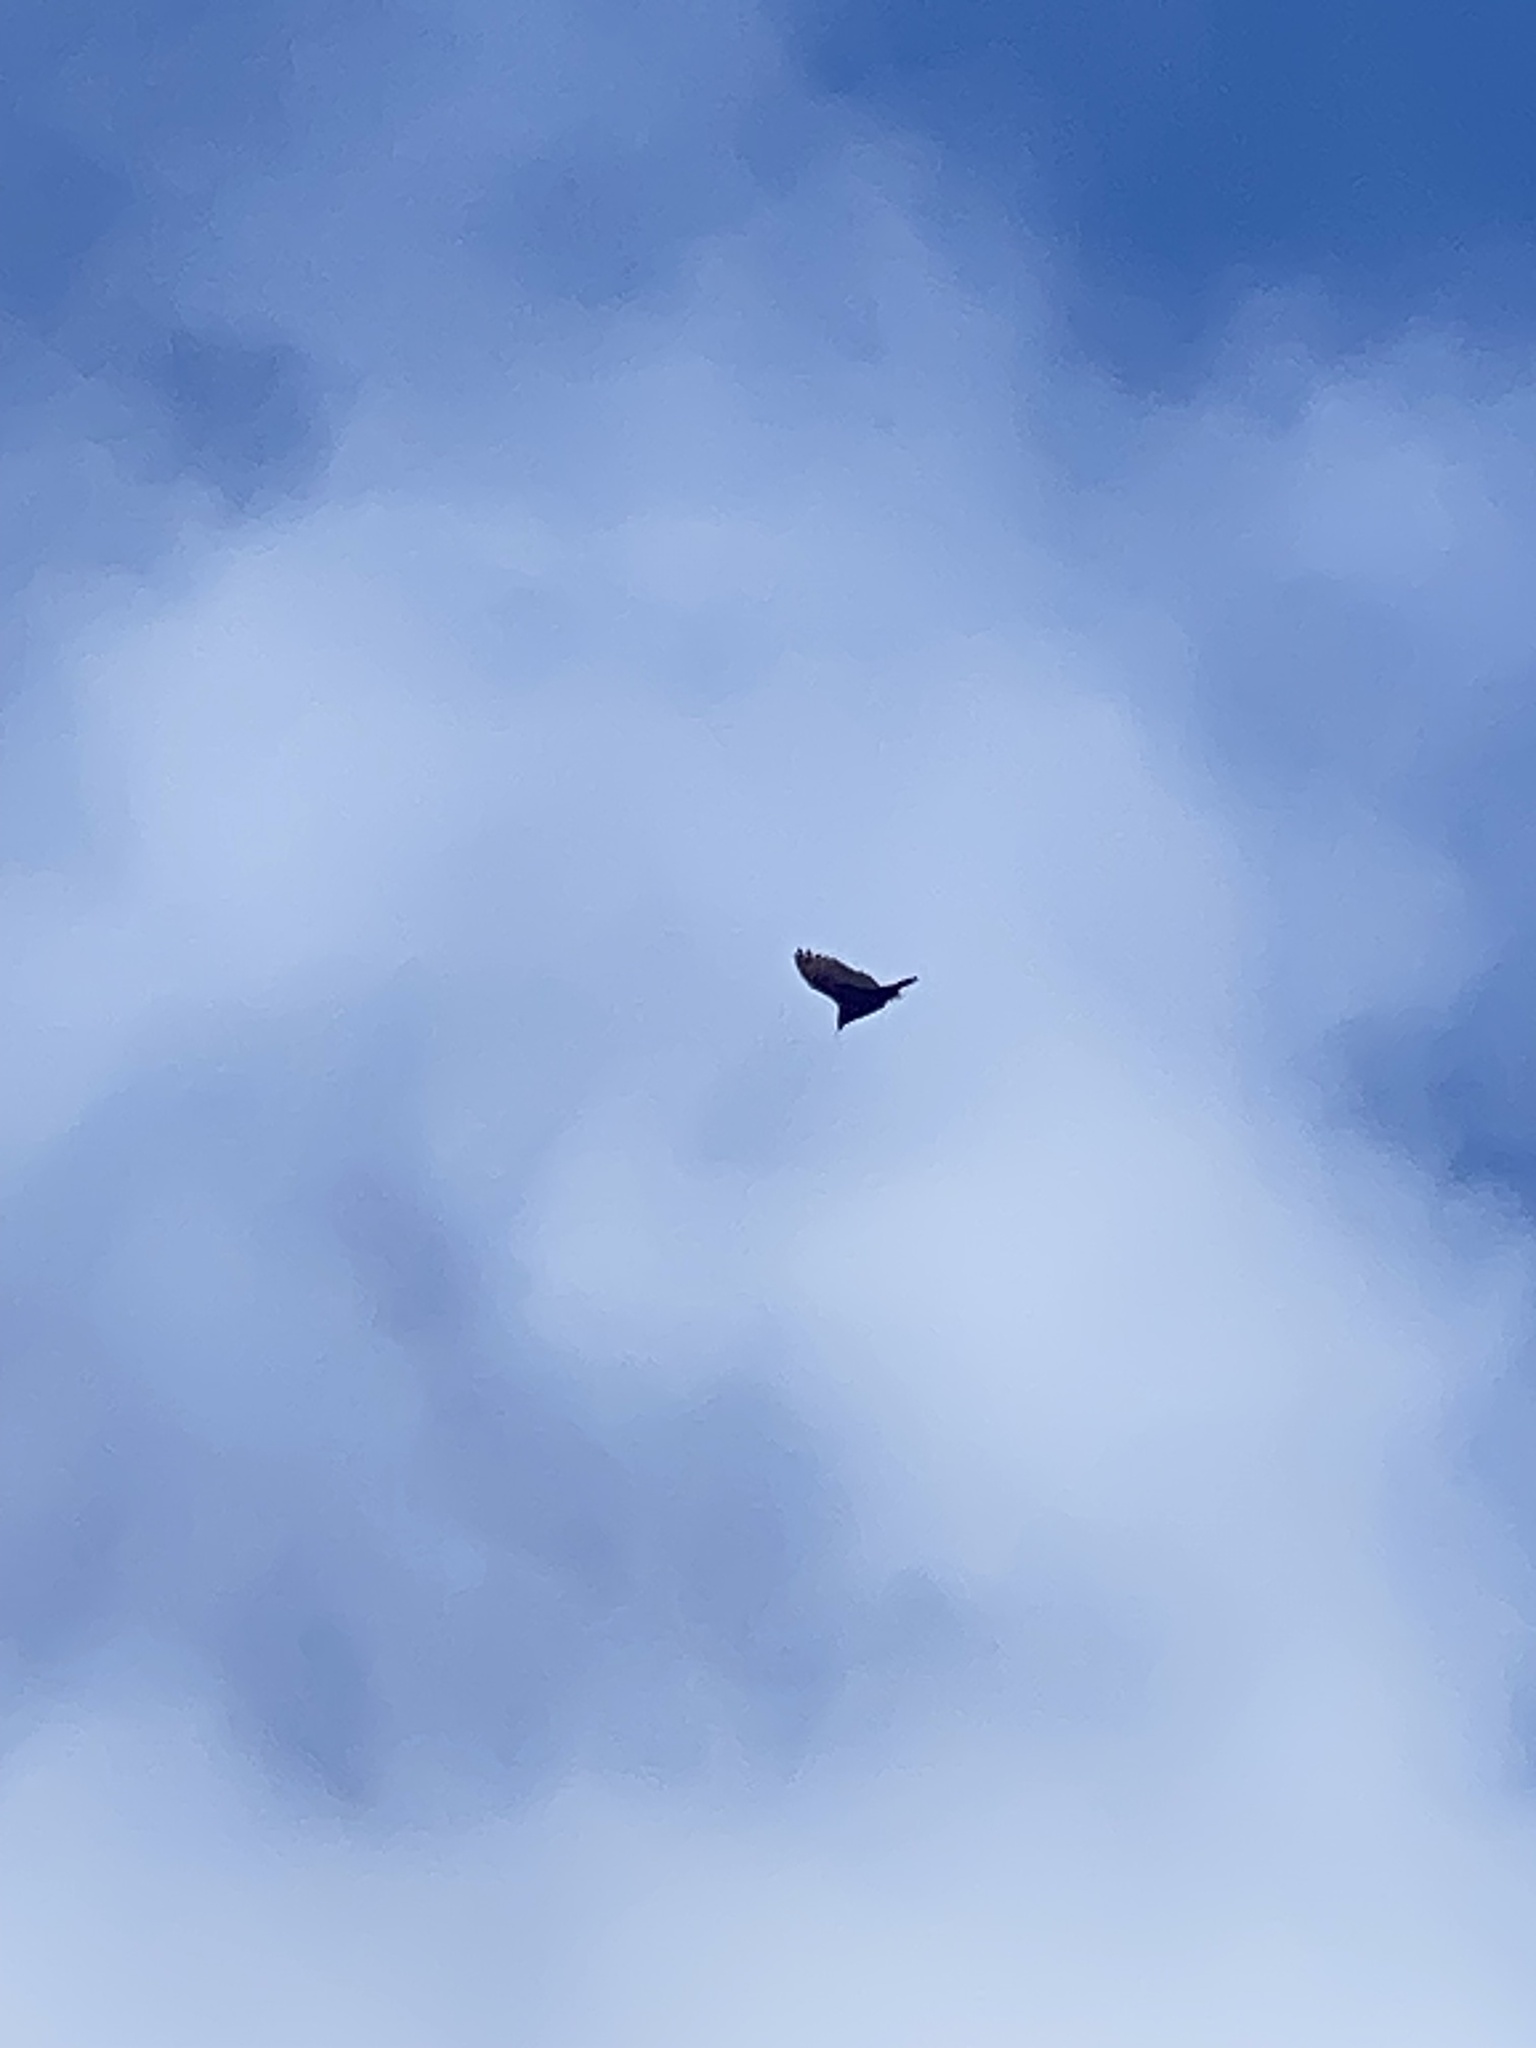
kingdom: Animalia
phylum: Chordata
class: Aves
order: Accipitriformes
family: Cathartidae
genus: Cathartes
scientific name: Cathartes aura
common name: Turkey vulture
